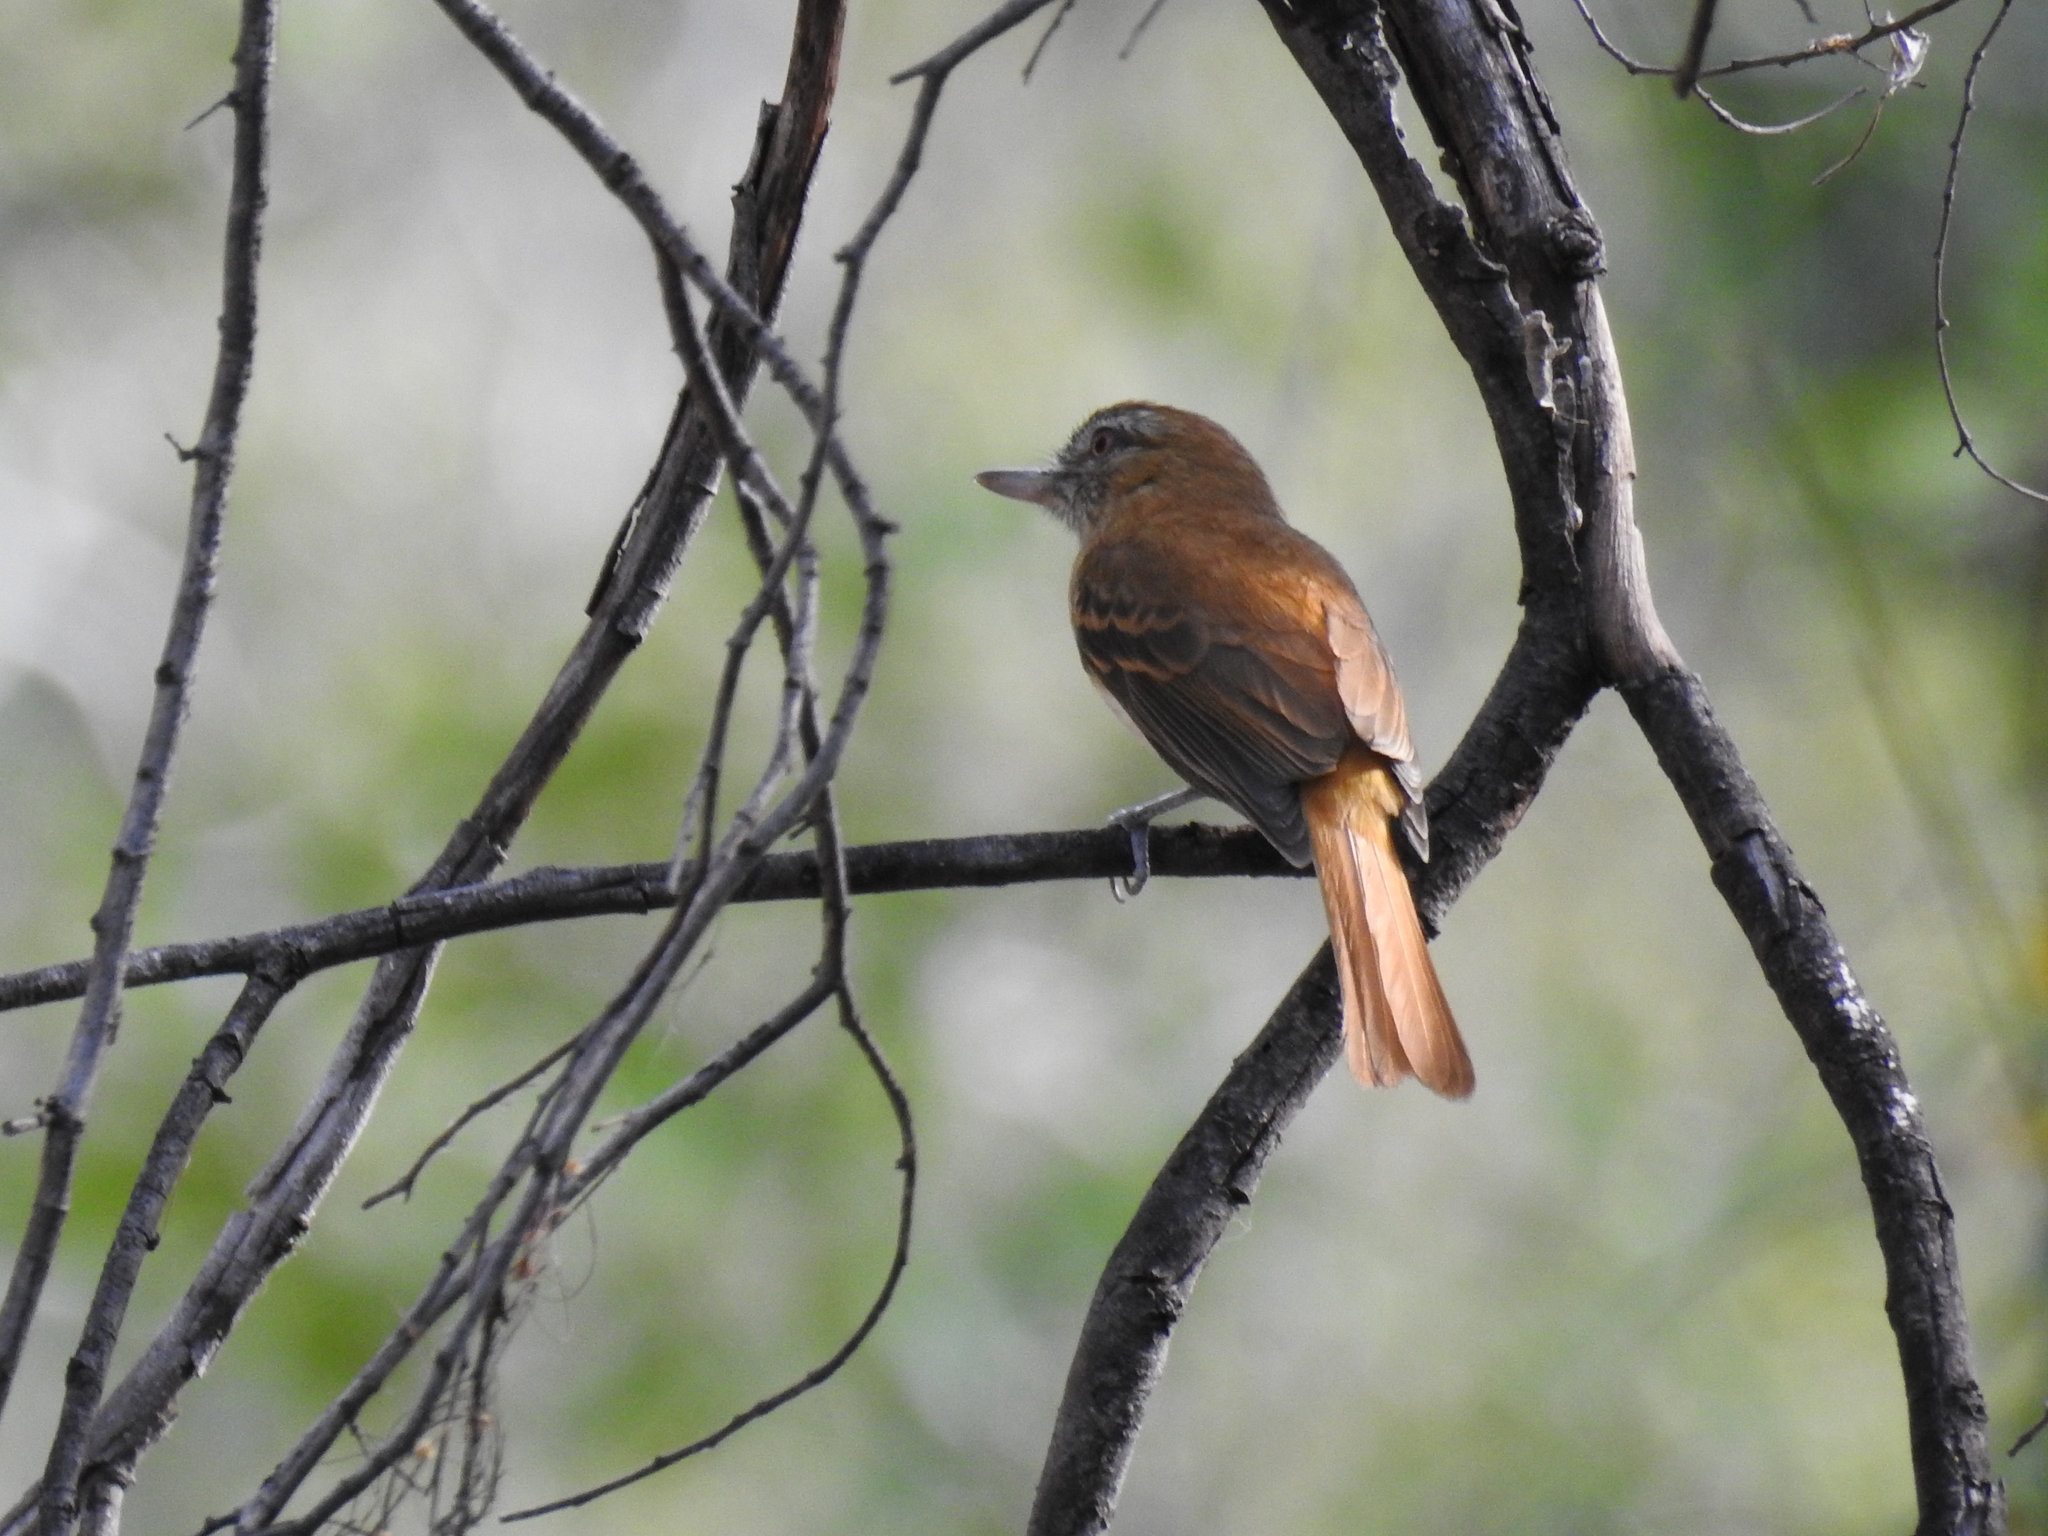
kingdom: Animalia
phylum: Chordata
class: Aves
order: Passeriformes
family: Tyrannidae
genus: Attila
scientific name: Attila spadiceus
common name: Bright-rumped attila
